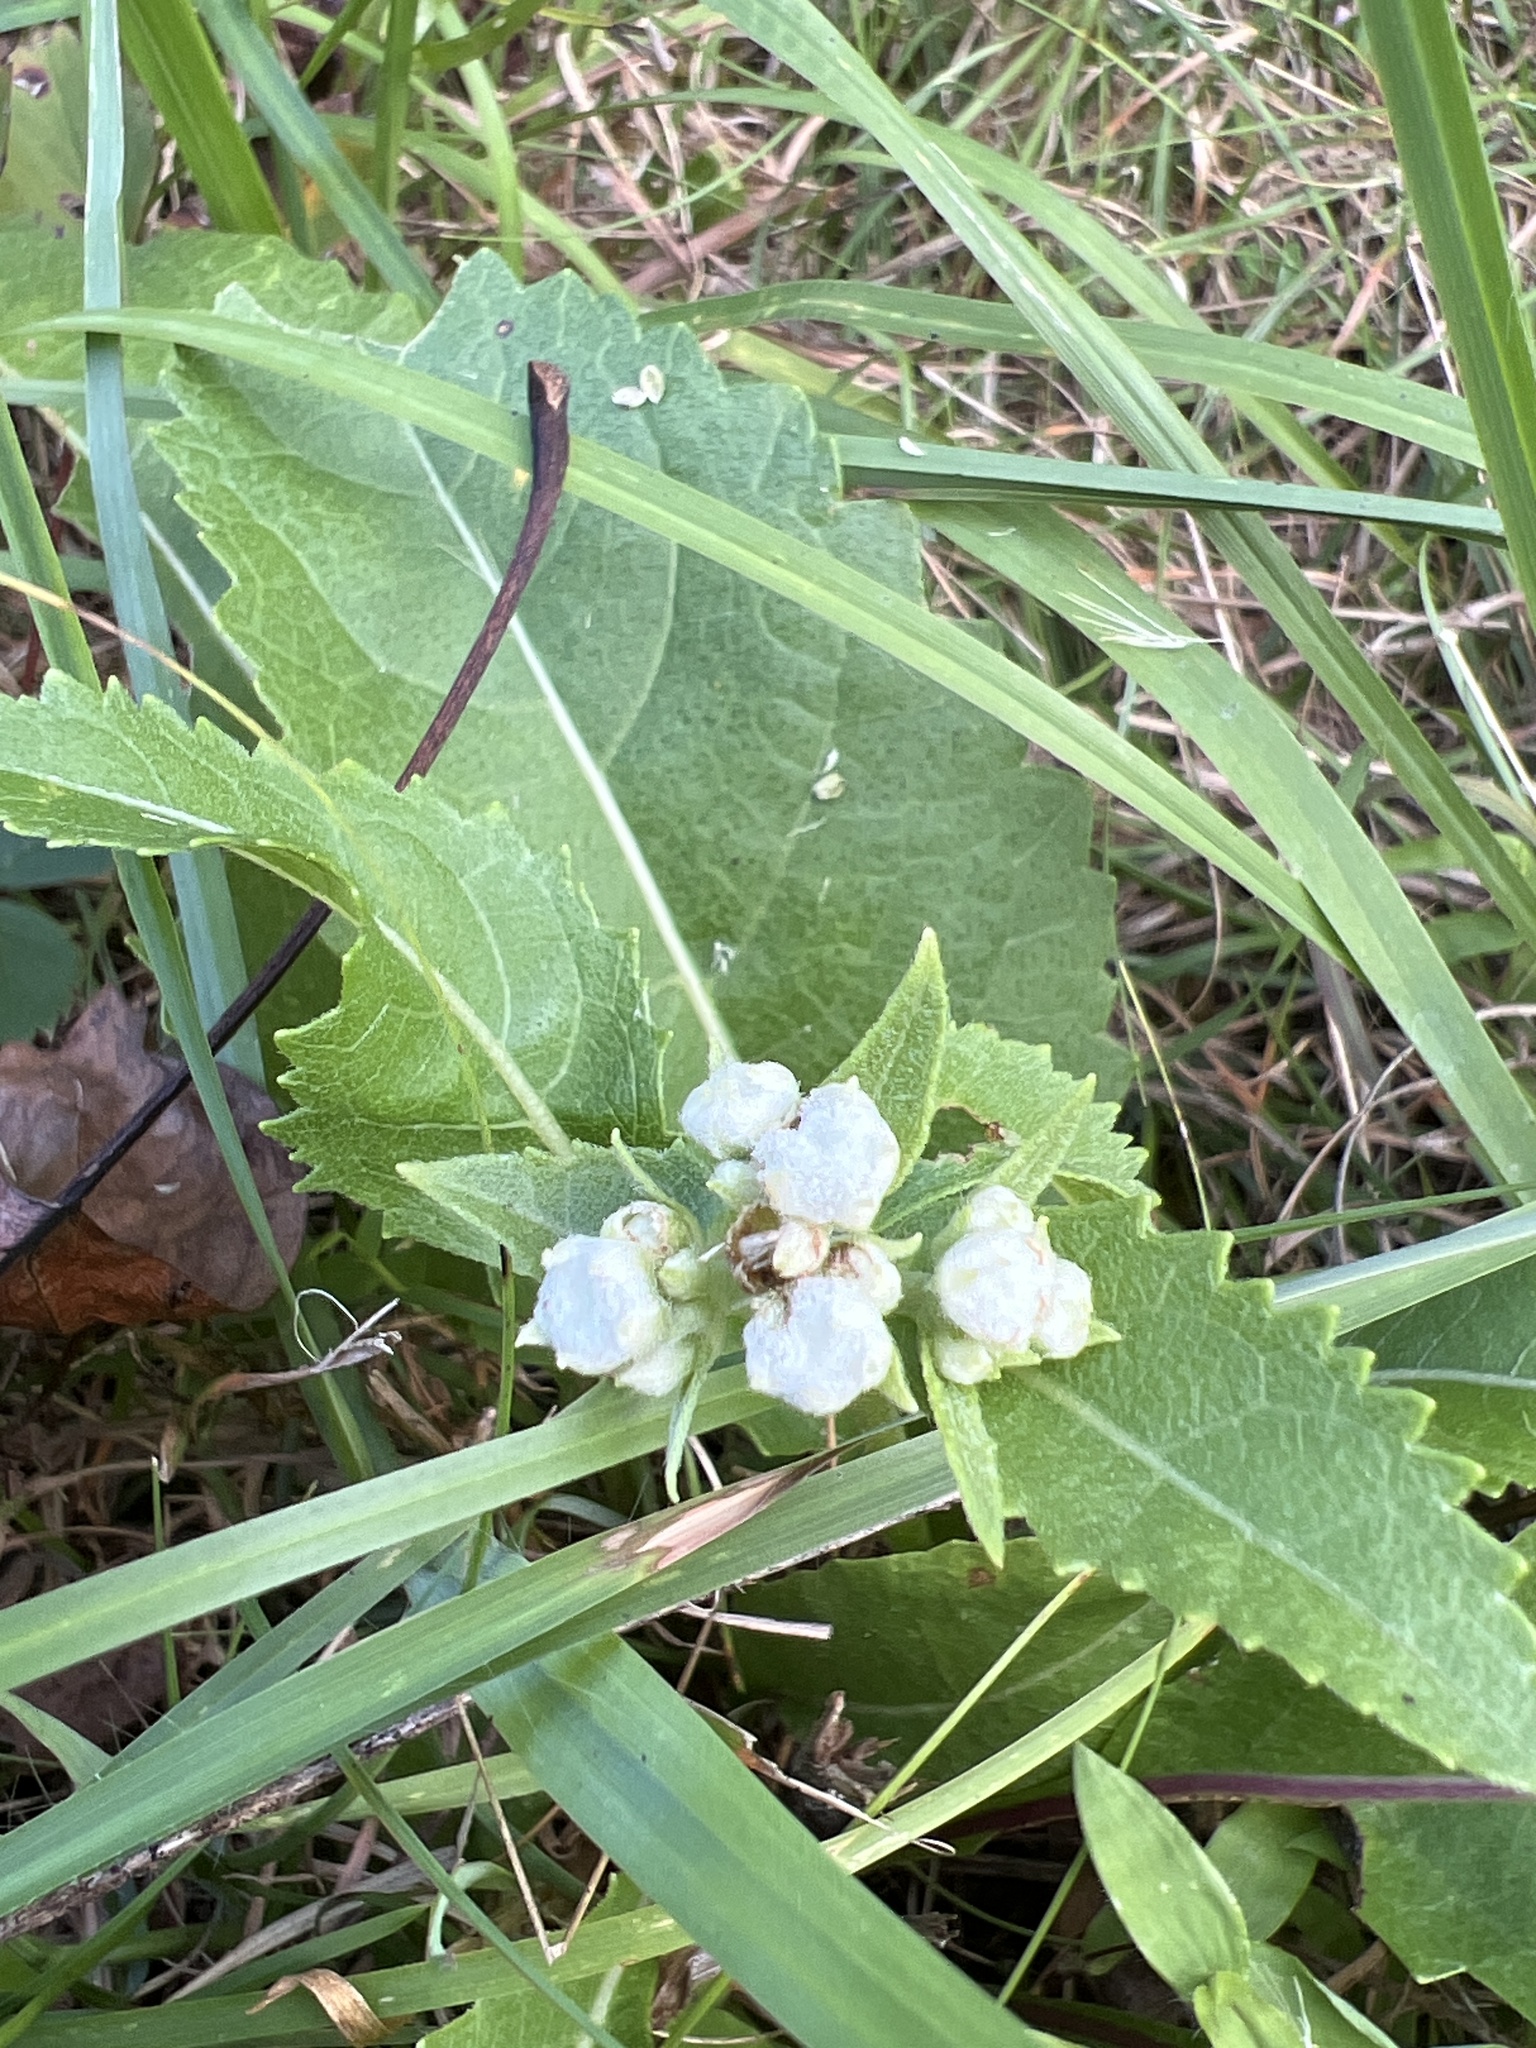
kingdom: Plantae
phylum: Tracheophyta
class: Magnoliopsida
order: Asterales
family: Asteraceae
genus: Parthenium
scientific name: Parthenium integrifolium
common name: American feverfew
